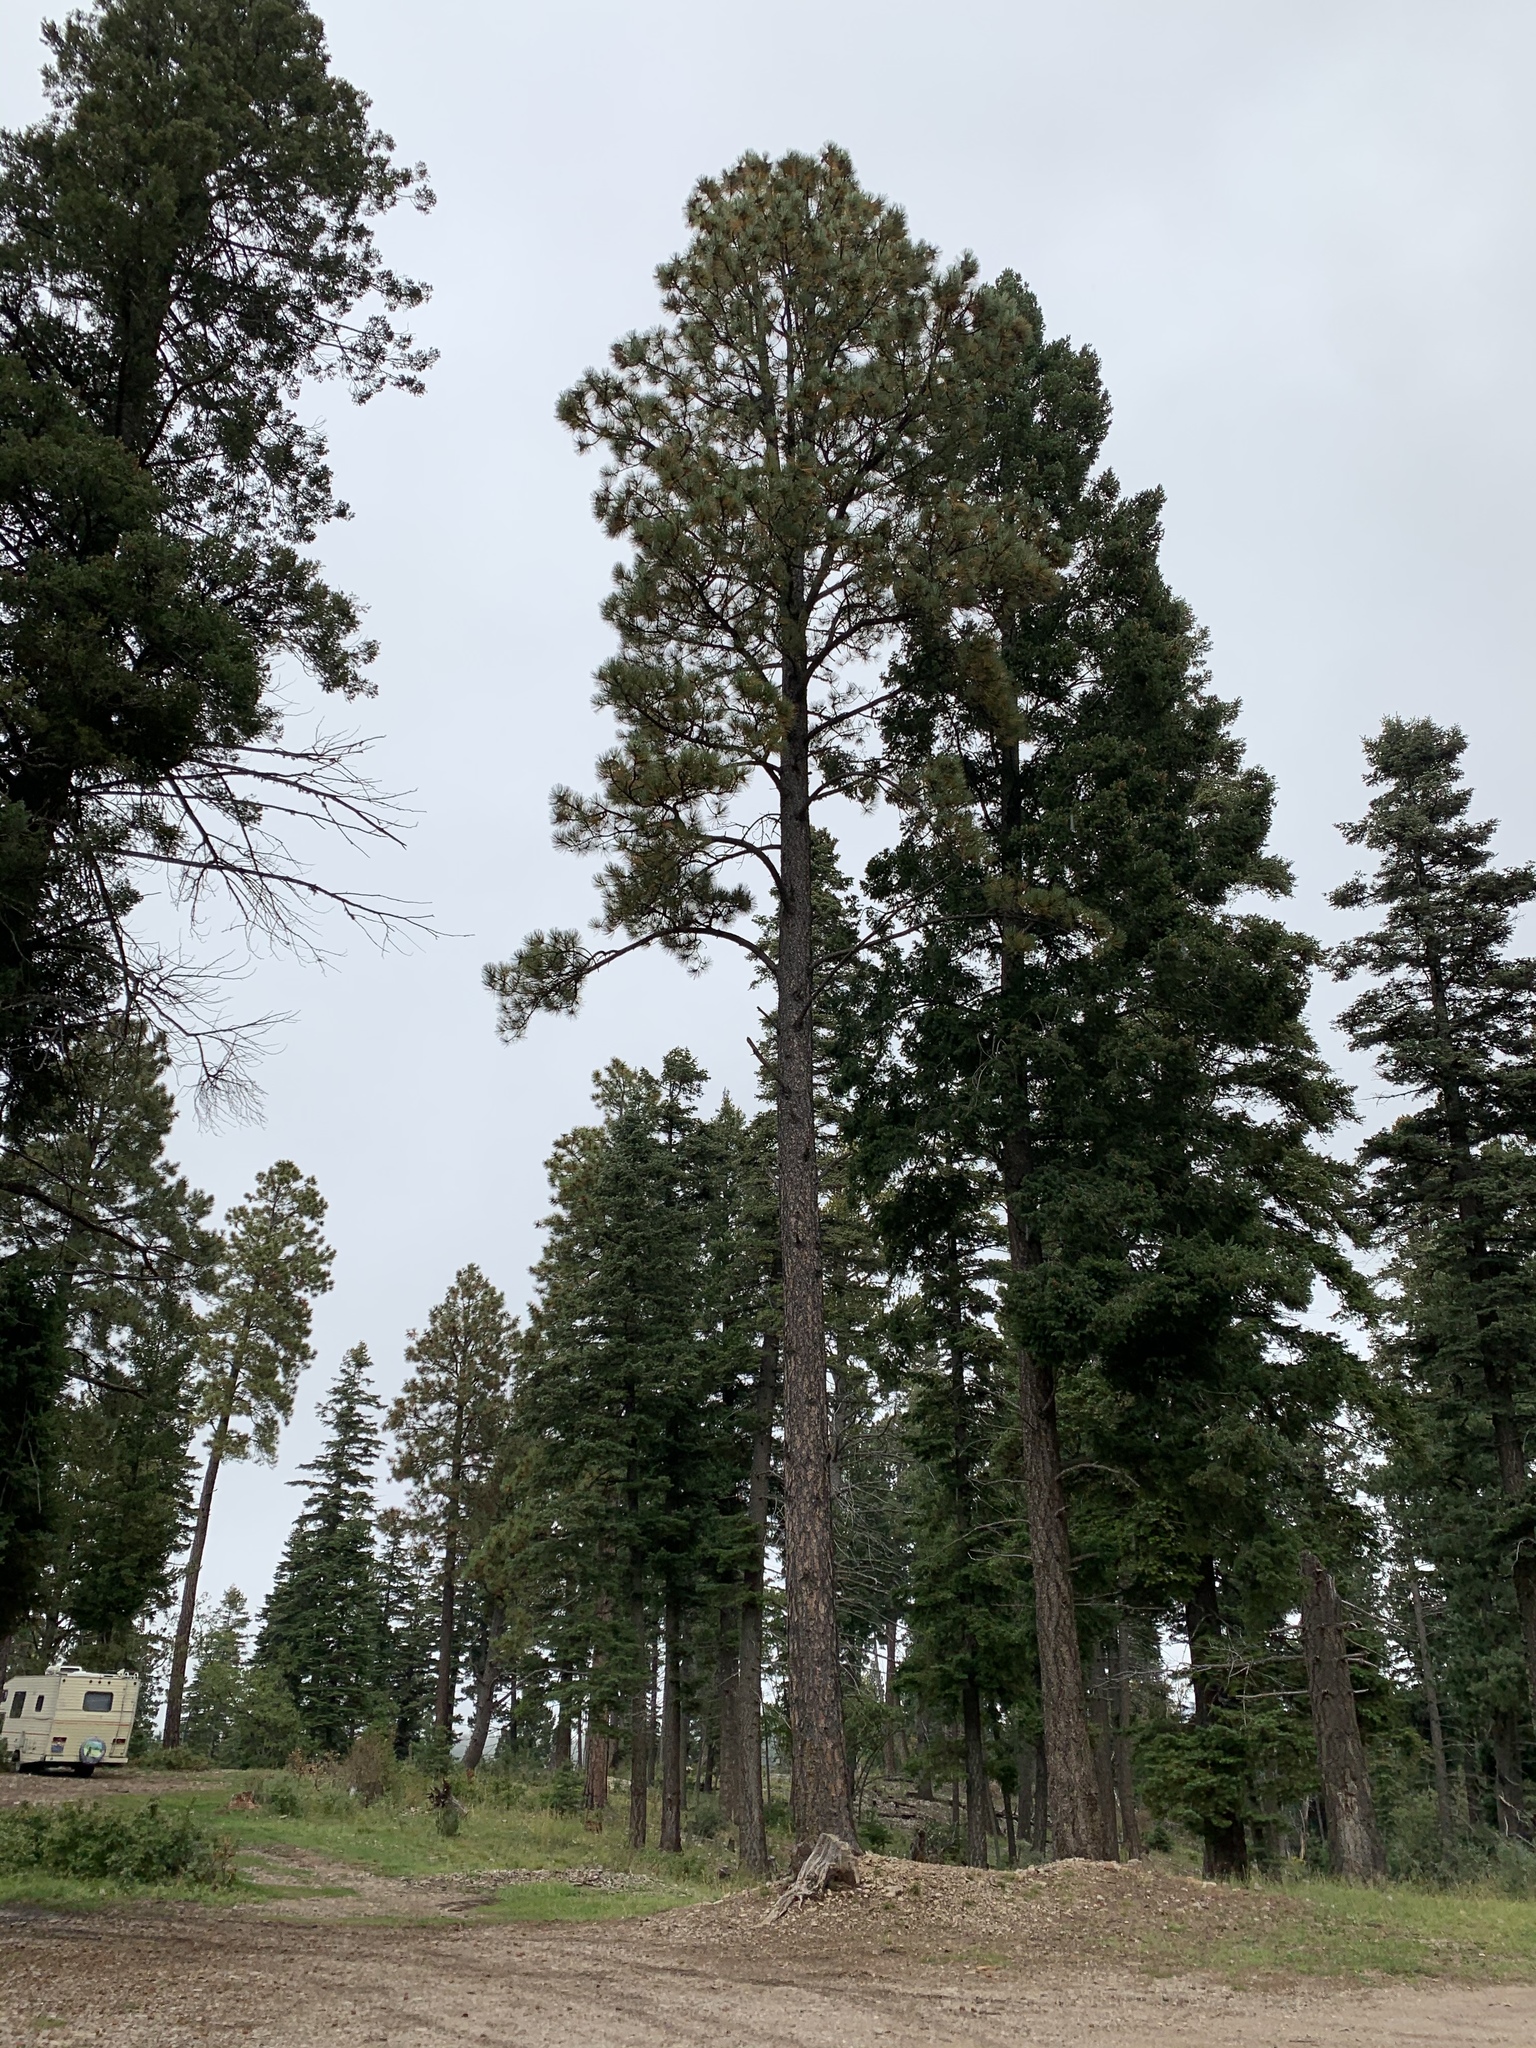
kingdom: Plantae
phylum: Tracheophyta
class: Pinopsida
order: Pinales
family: Pinaceae
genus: Pinus
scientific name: Pinus ponderosa
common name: Western yellow-pine
